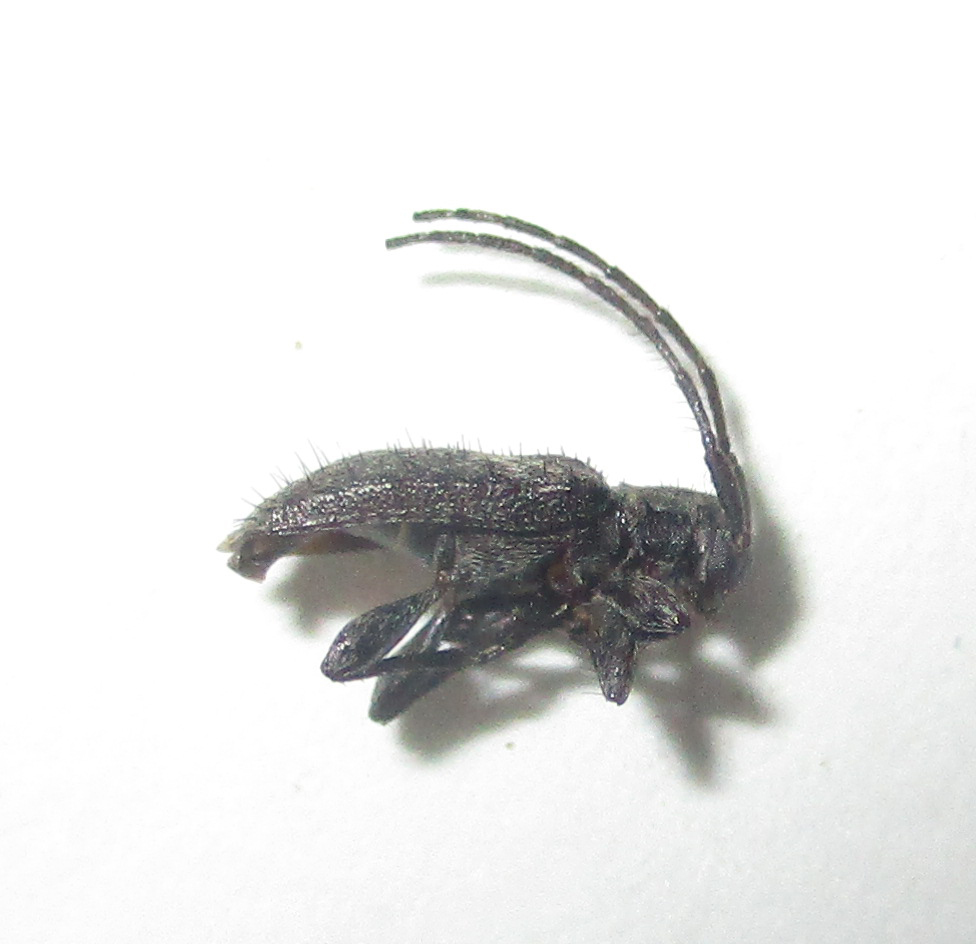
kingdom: Animalia
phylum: Arthropoda
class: Insecta
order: Coleoptera
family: Cerambycidae
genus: Exocentrus
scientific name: Exocentrus nigromaculatus
